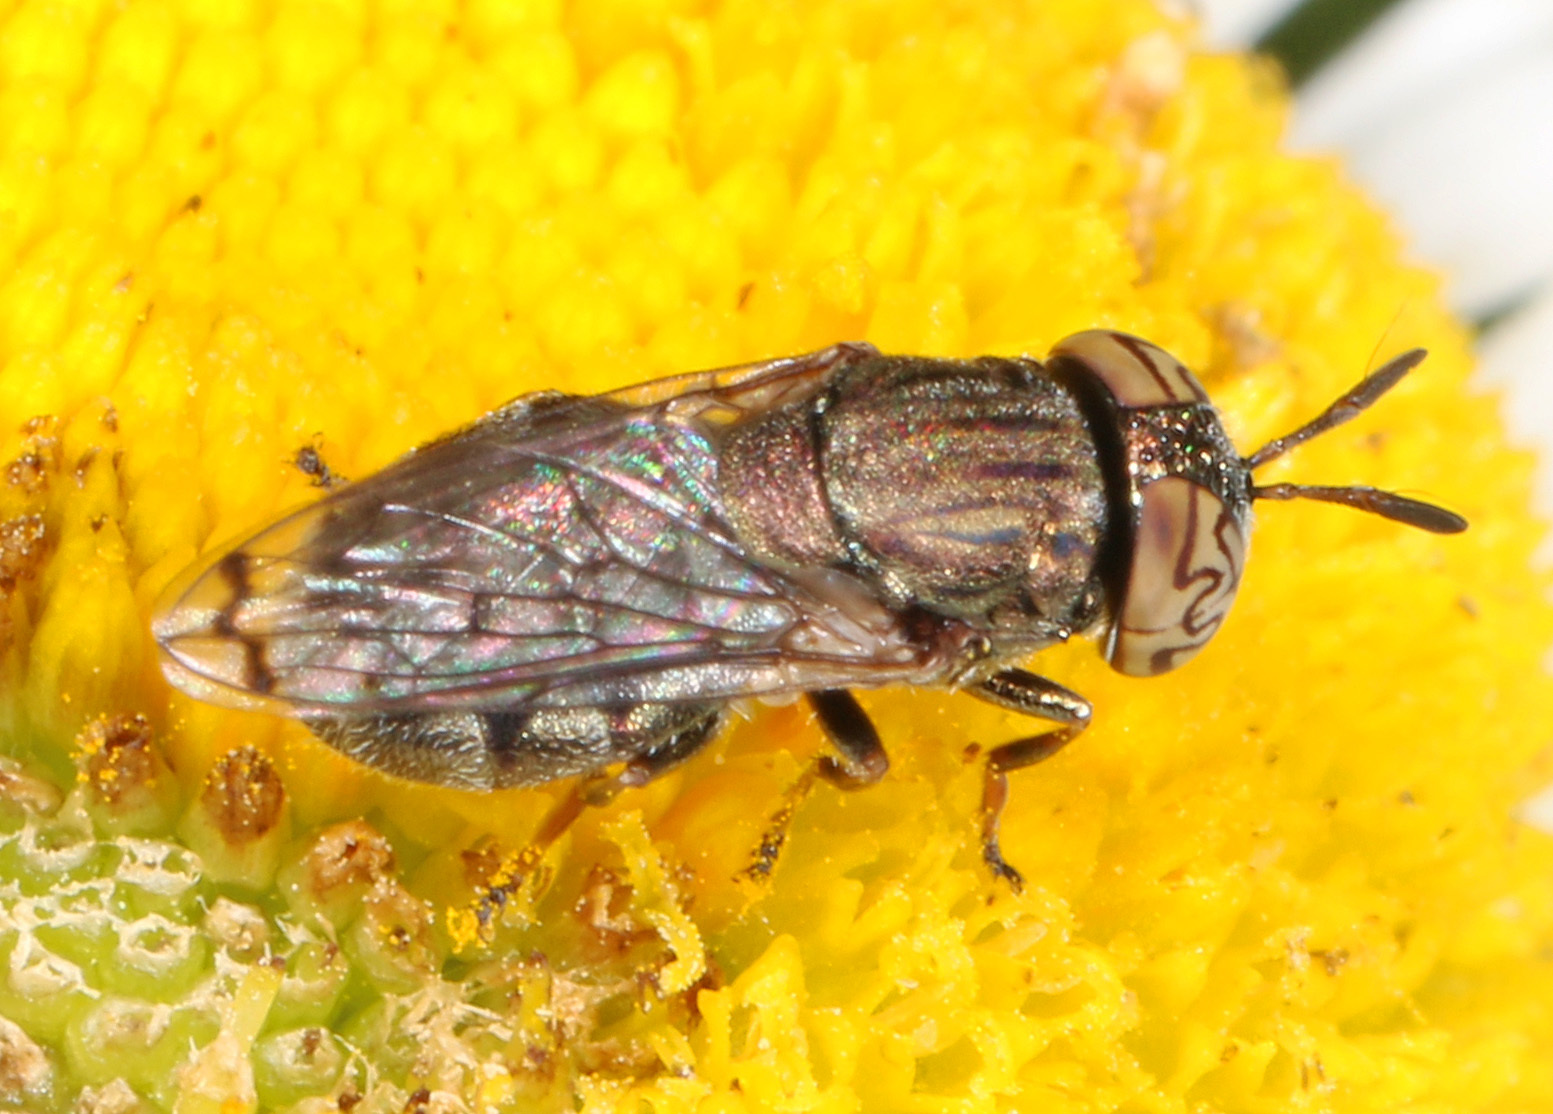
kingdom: Animalia
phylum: Arthropoda
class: Insecta
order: Diptera
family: Syrphidae
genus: Orthonevra
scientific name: Orthonevra nitida
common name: Wavy mucksucker
